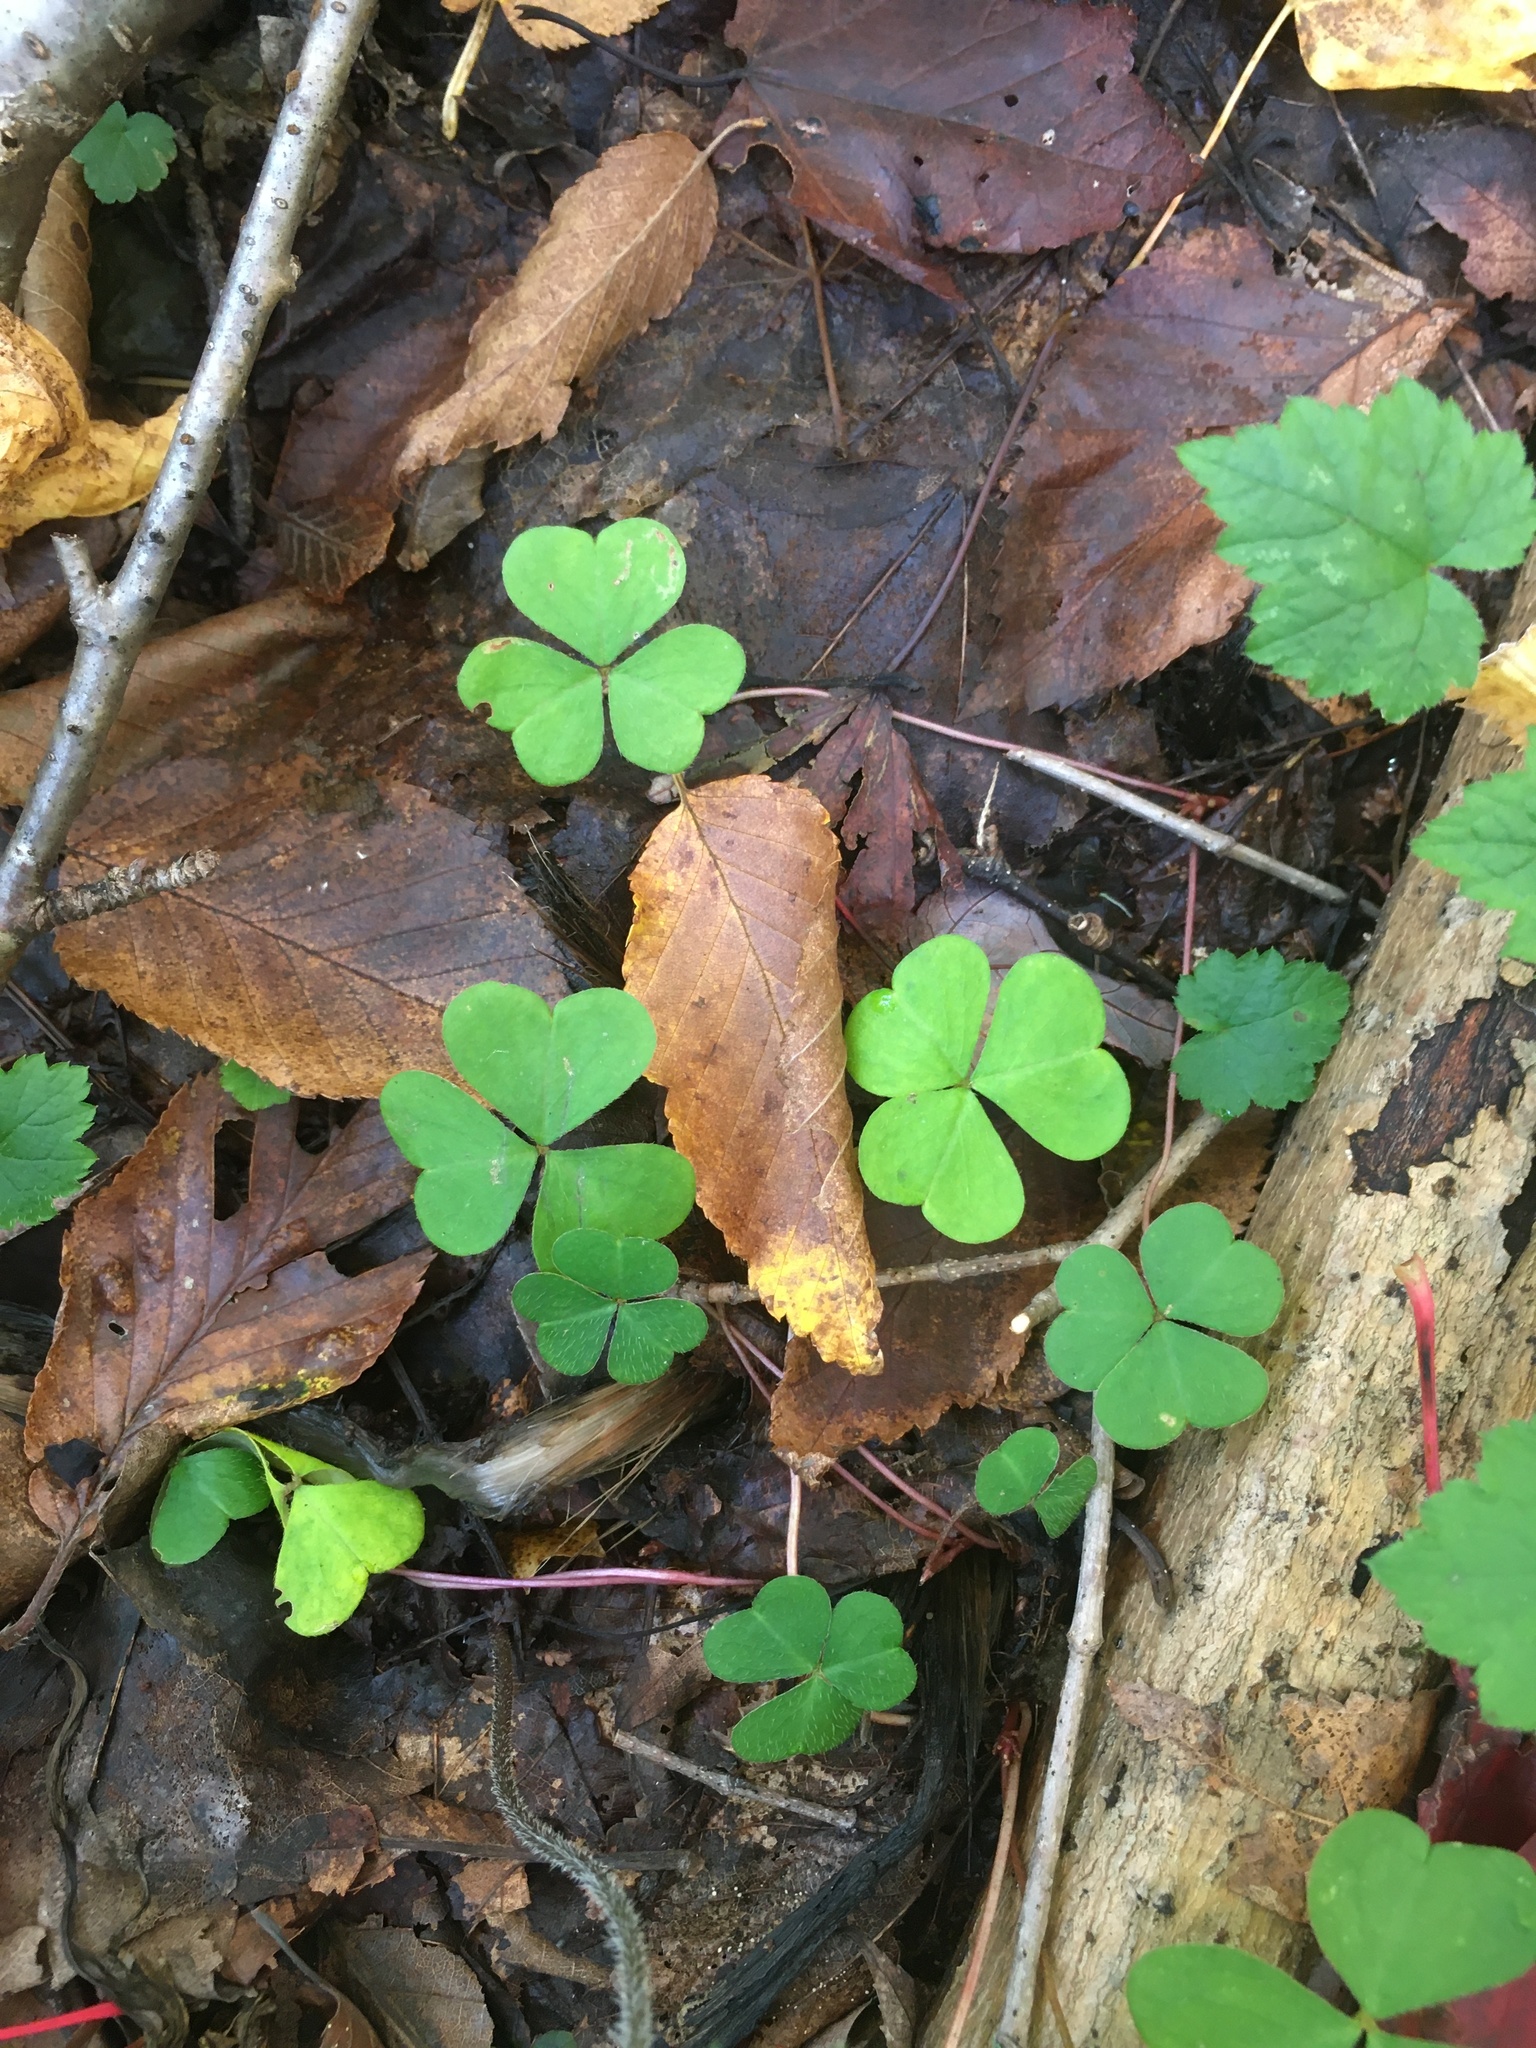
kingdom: Plantae
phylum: Tracheophyta
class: Magnoliopsida
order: Oxalidales
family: Oxalidaceae
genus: Oxalis
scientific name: Oxalis montana
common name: American wood-sorrel
